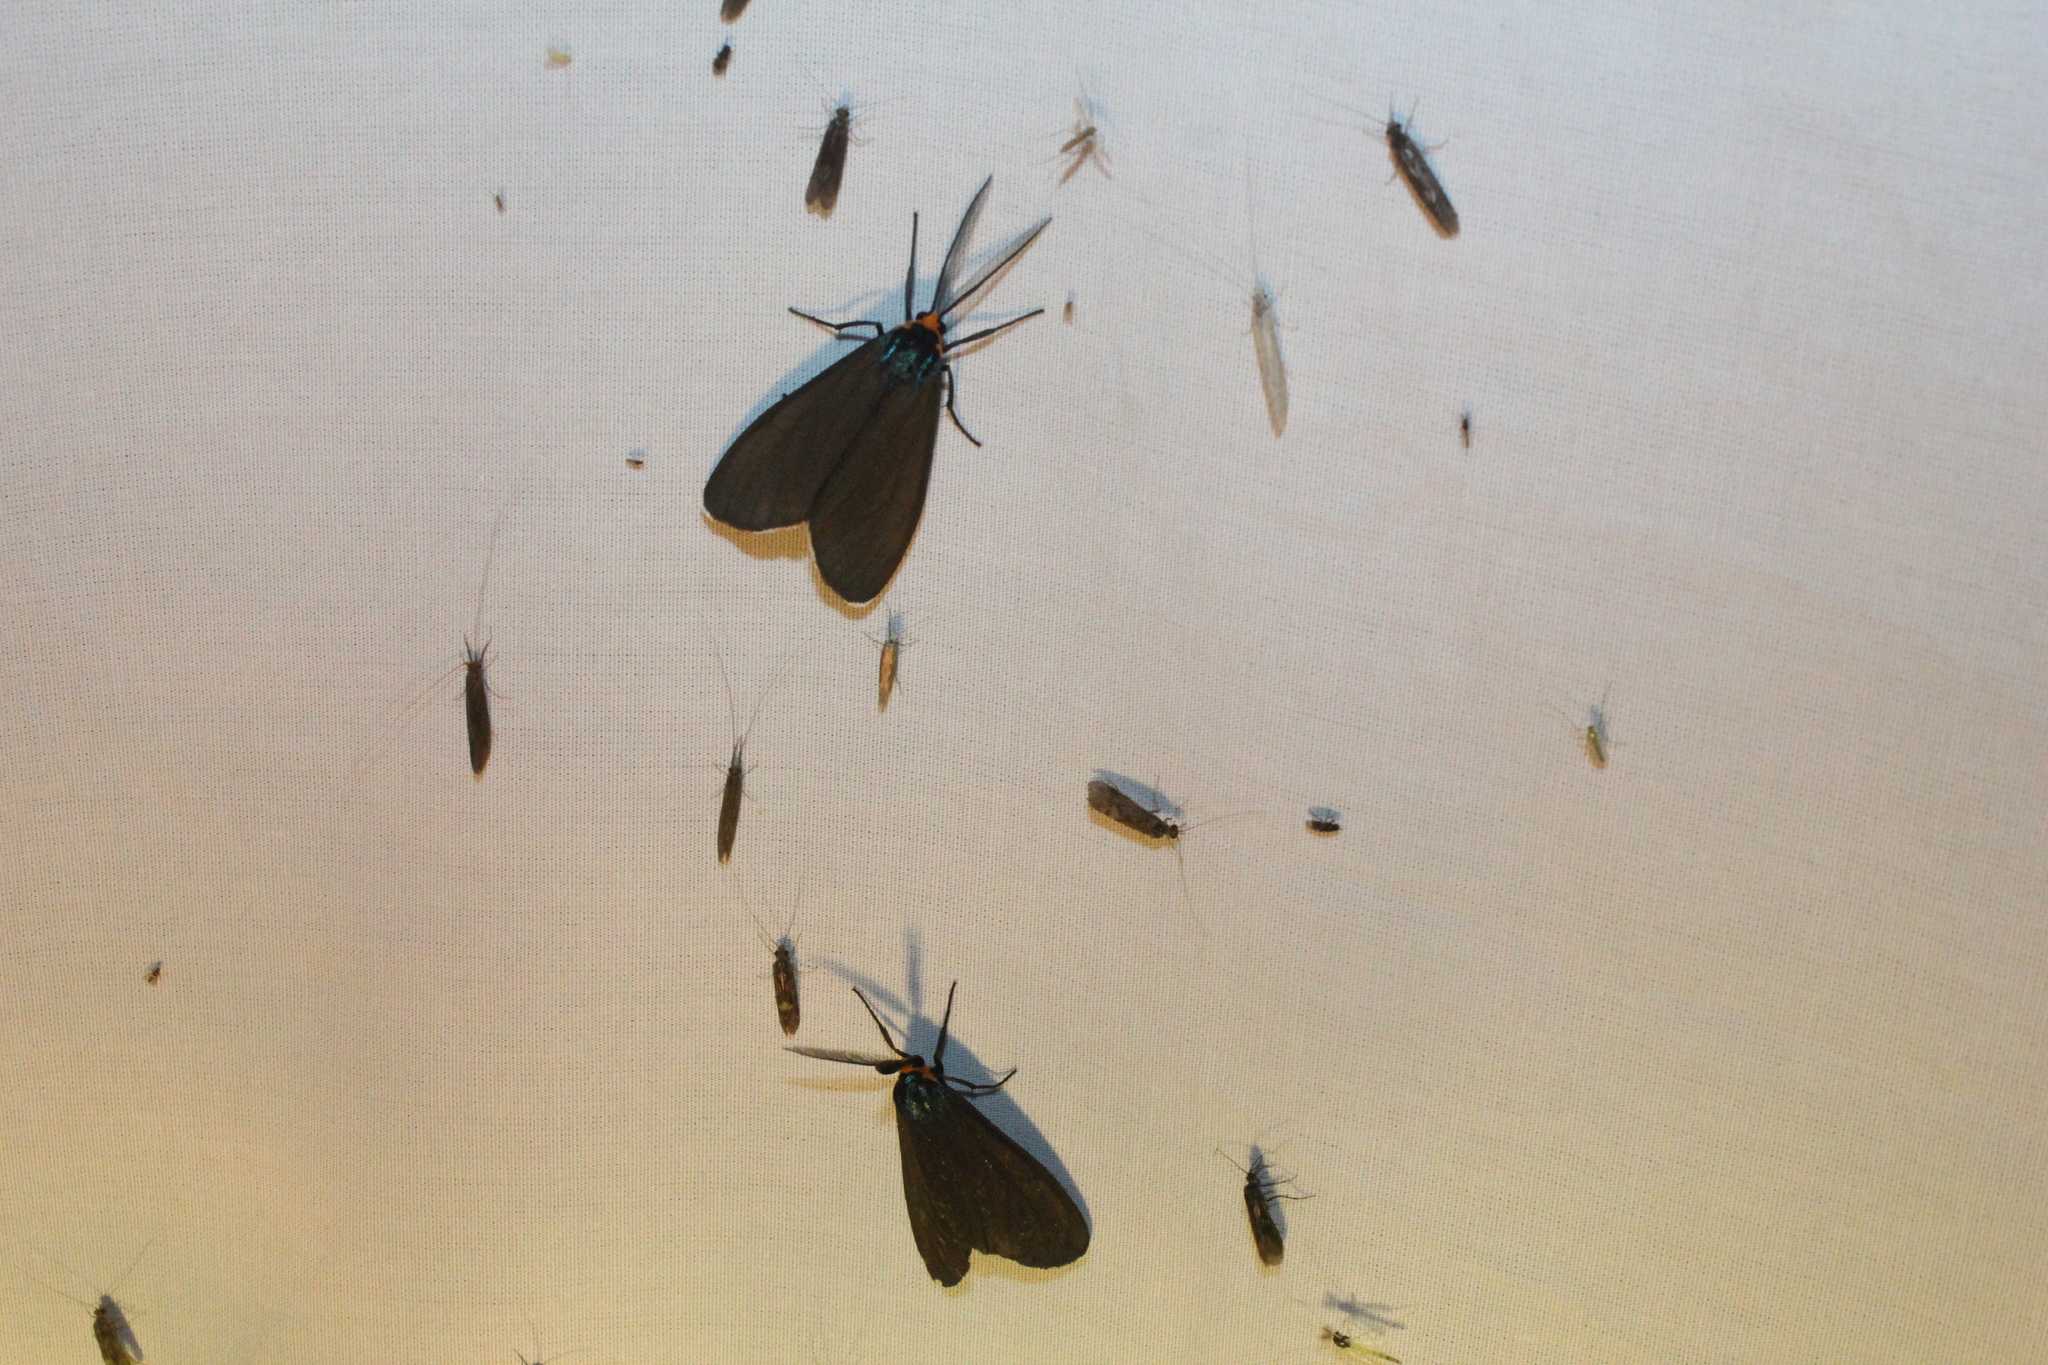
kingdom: Animalia
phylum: Arthropoda
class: Insecta
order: Lepidoptera
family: Erebidae
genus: Ctenucha
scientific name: Ctenucha virginica
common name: Virginia ctenucha moth
